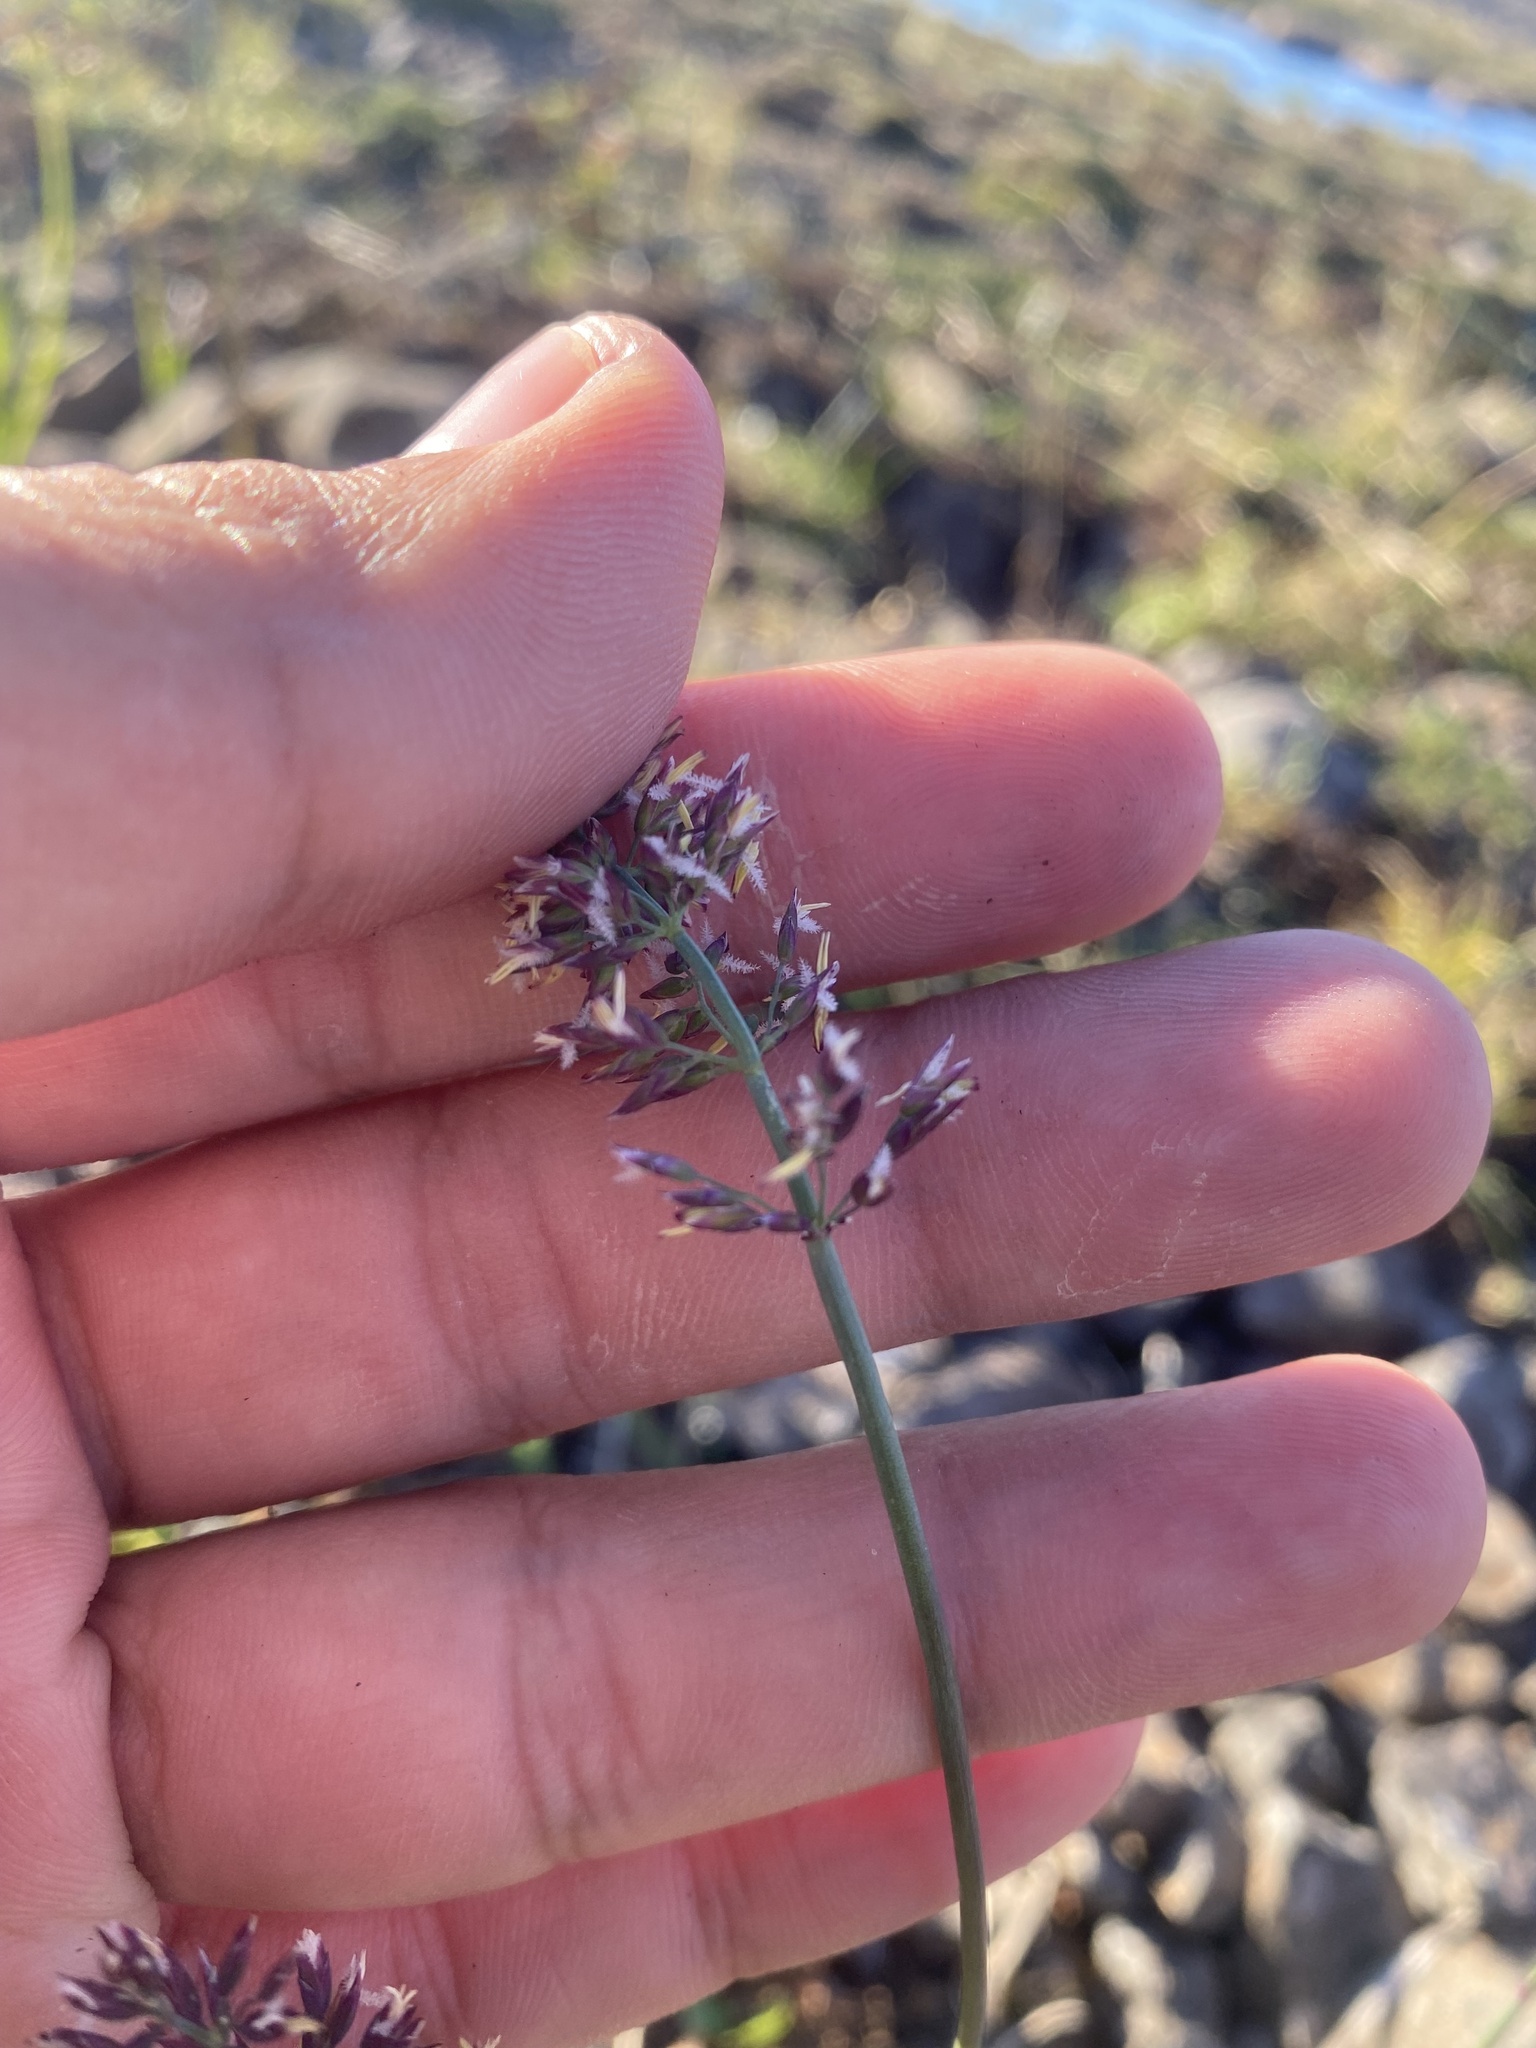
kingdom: Plantae
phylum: Tracheophyta
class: Liliopsida
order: Poales
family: Poaceae
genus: Arctagrostis
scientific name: Arctagrostis latifolia
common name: Arctic grass
